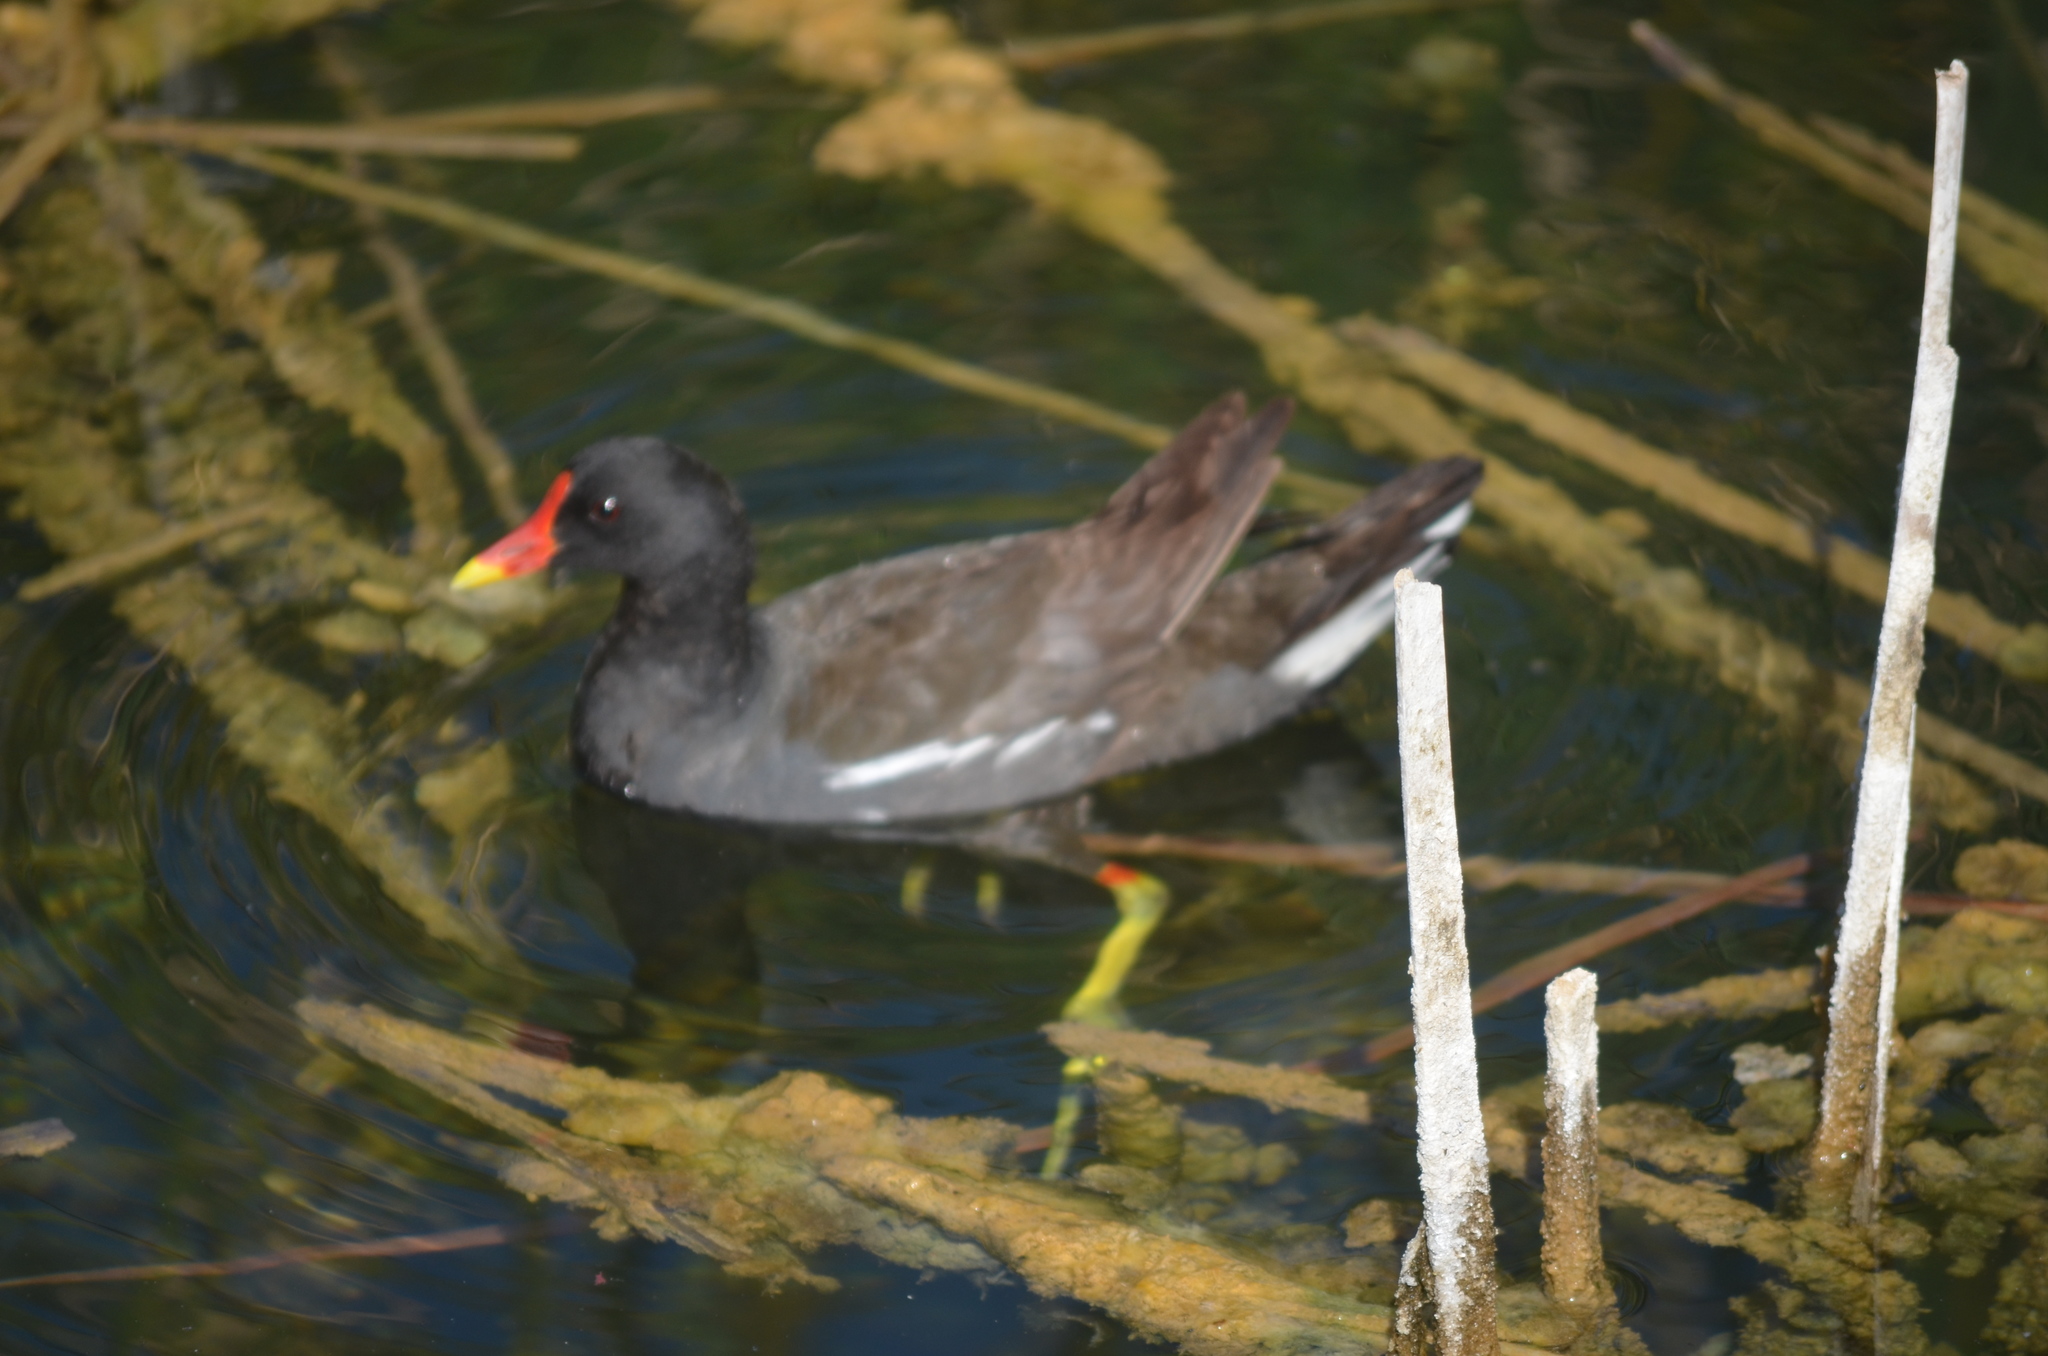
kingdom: Animalia
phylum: Chordata
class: Aves
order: Gruiformes
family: Rallidae
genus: Gallinula
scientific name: Gallinula chloropus
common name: Common moorhen
